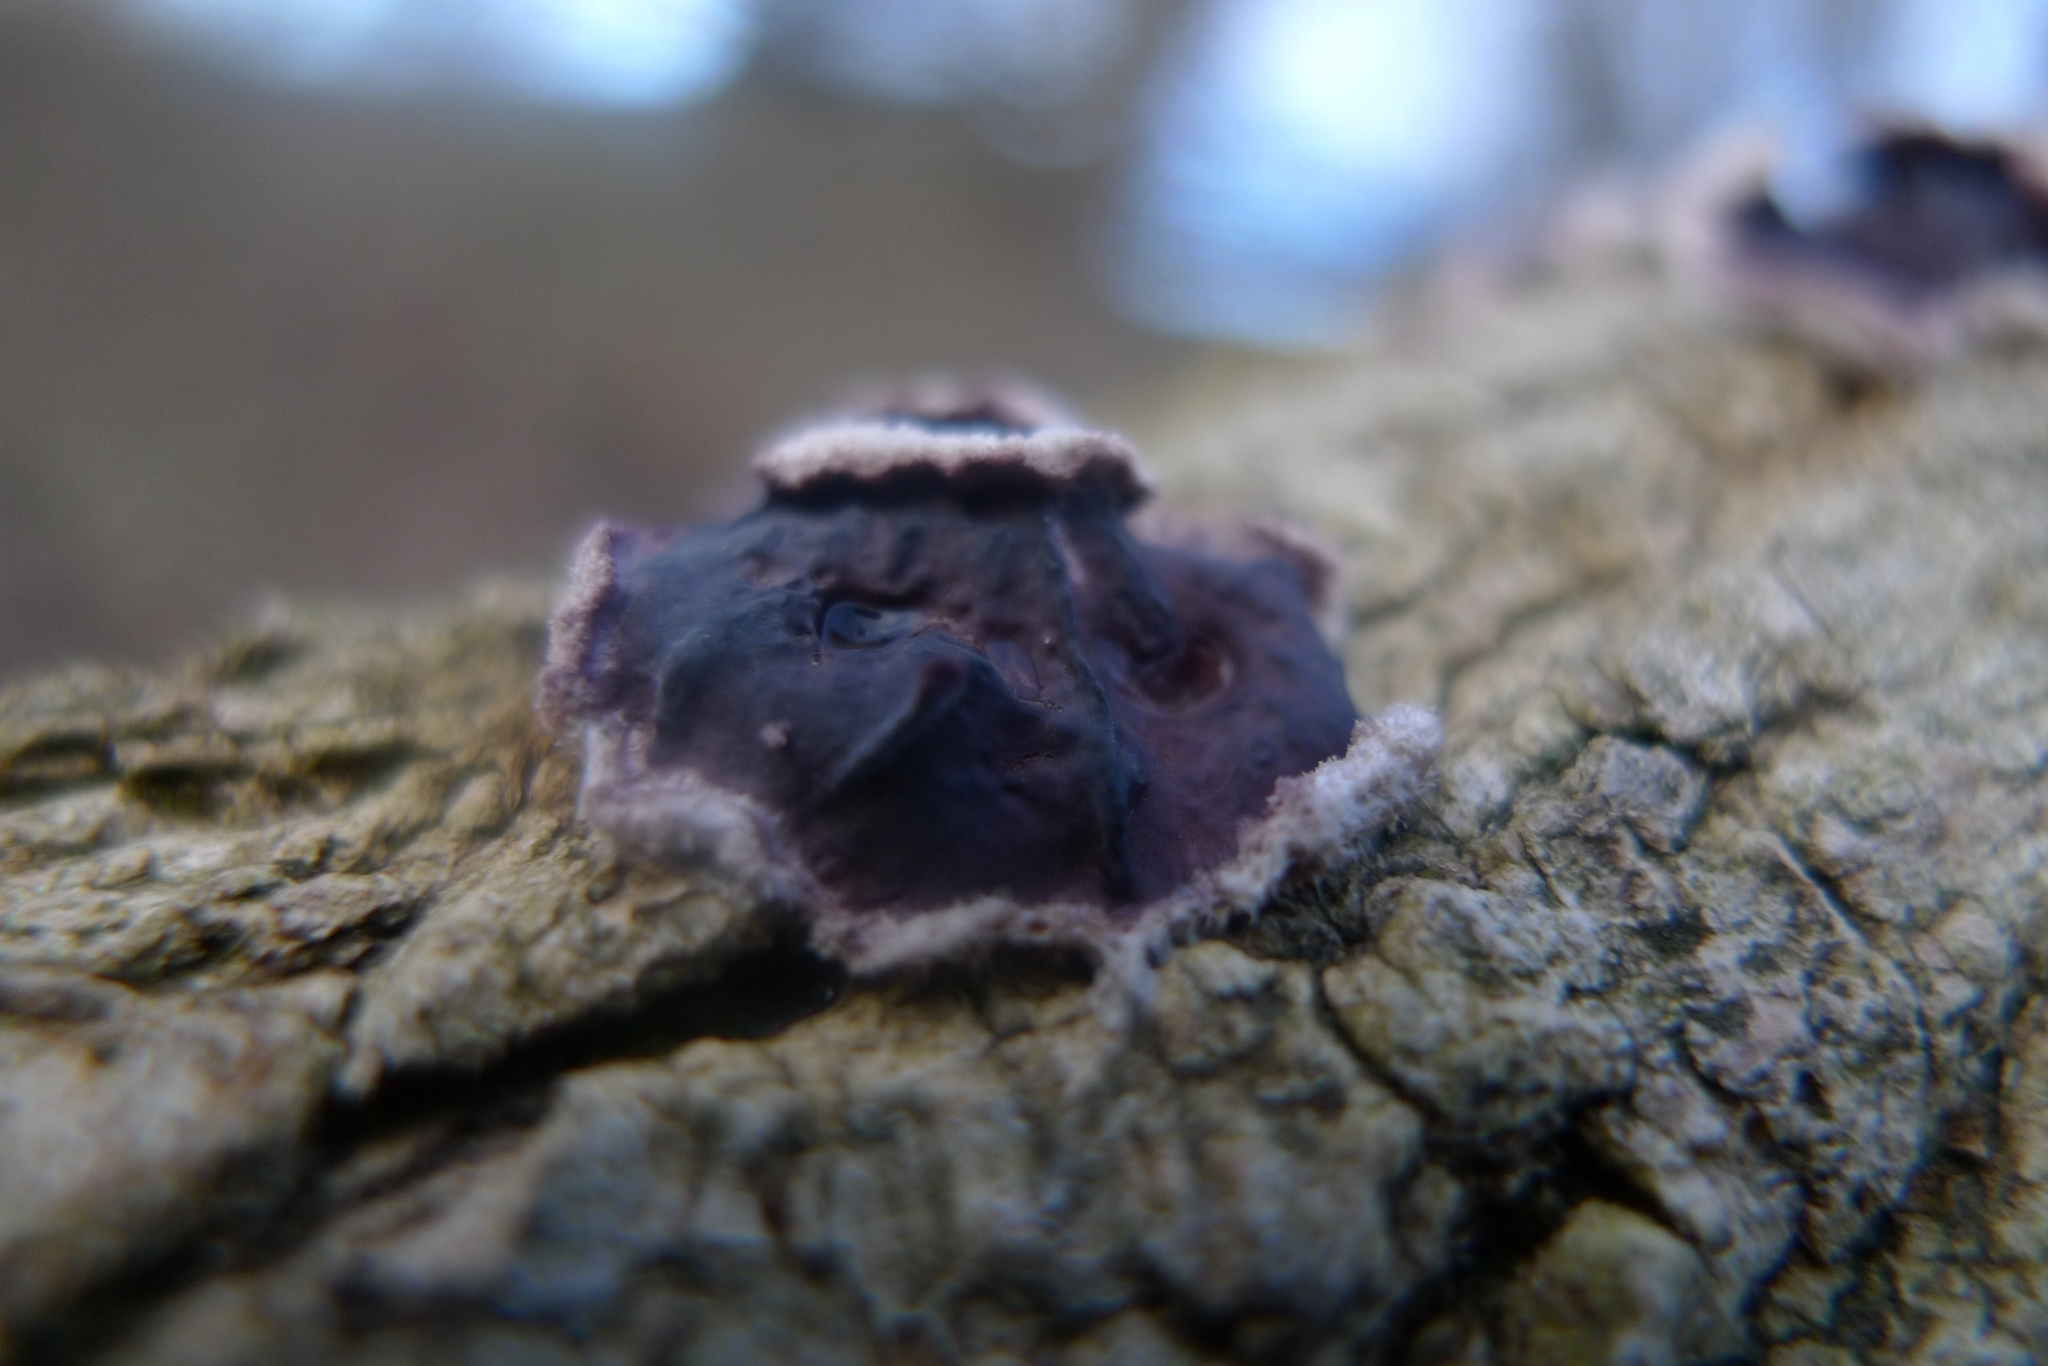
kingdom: Fungi
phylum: Basidiomycota
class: Agaricomycetes
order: Agaricales
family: Cyphellaceae
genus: Chondrostereum
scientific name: Chondrostereum purpureum
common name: Silver leaf disease
